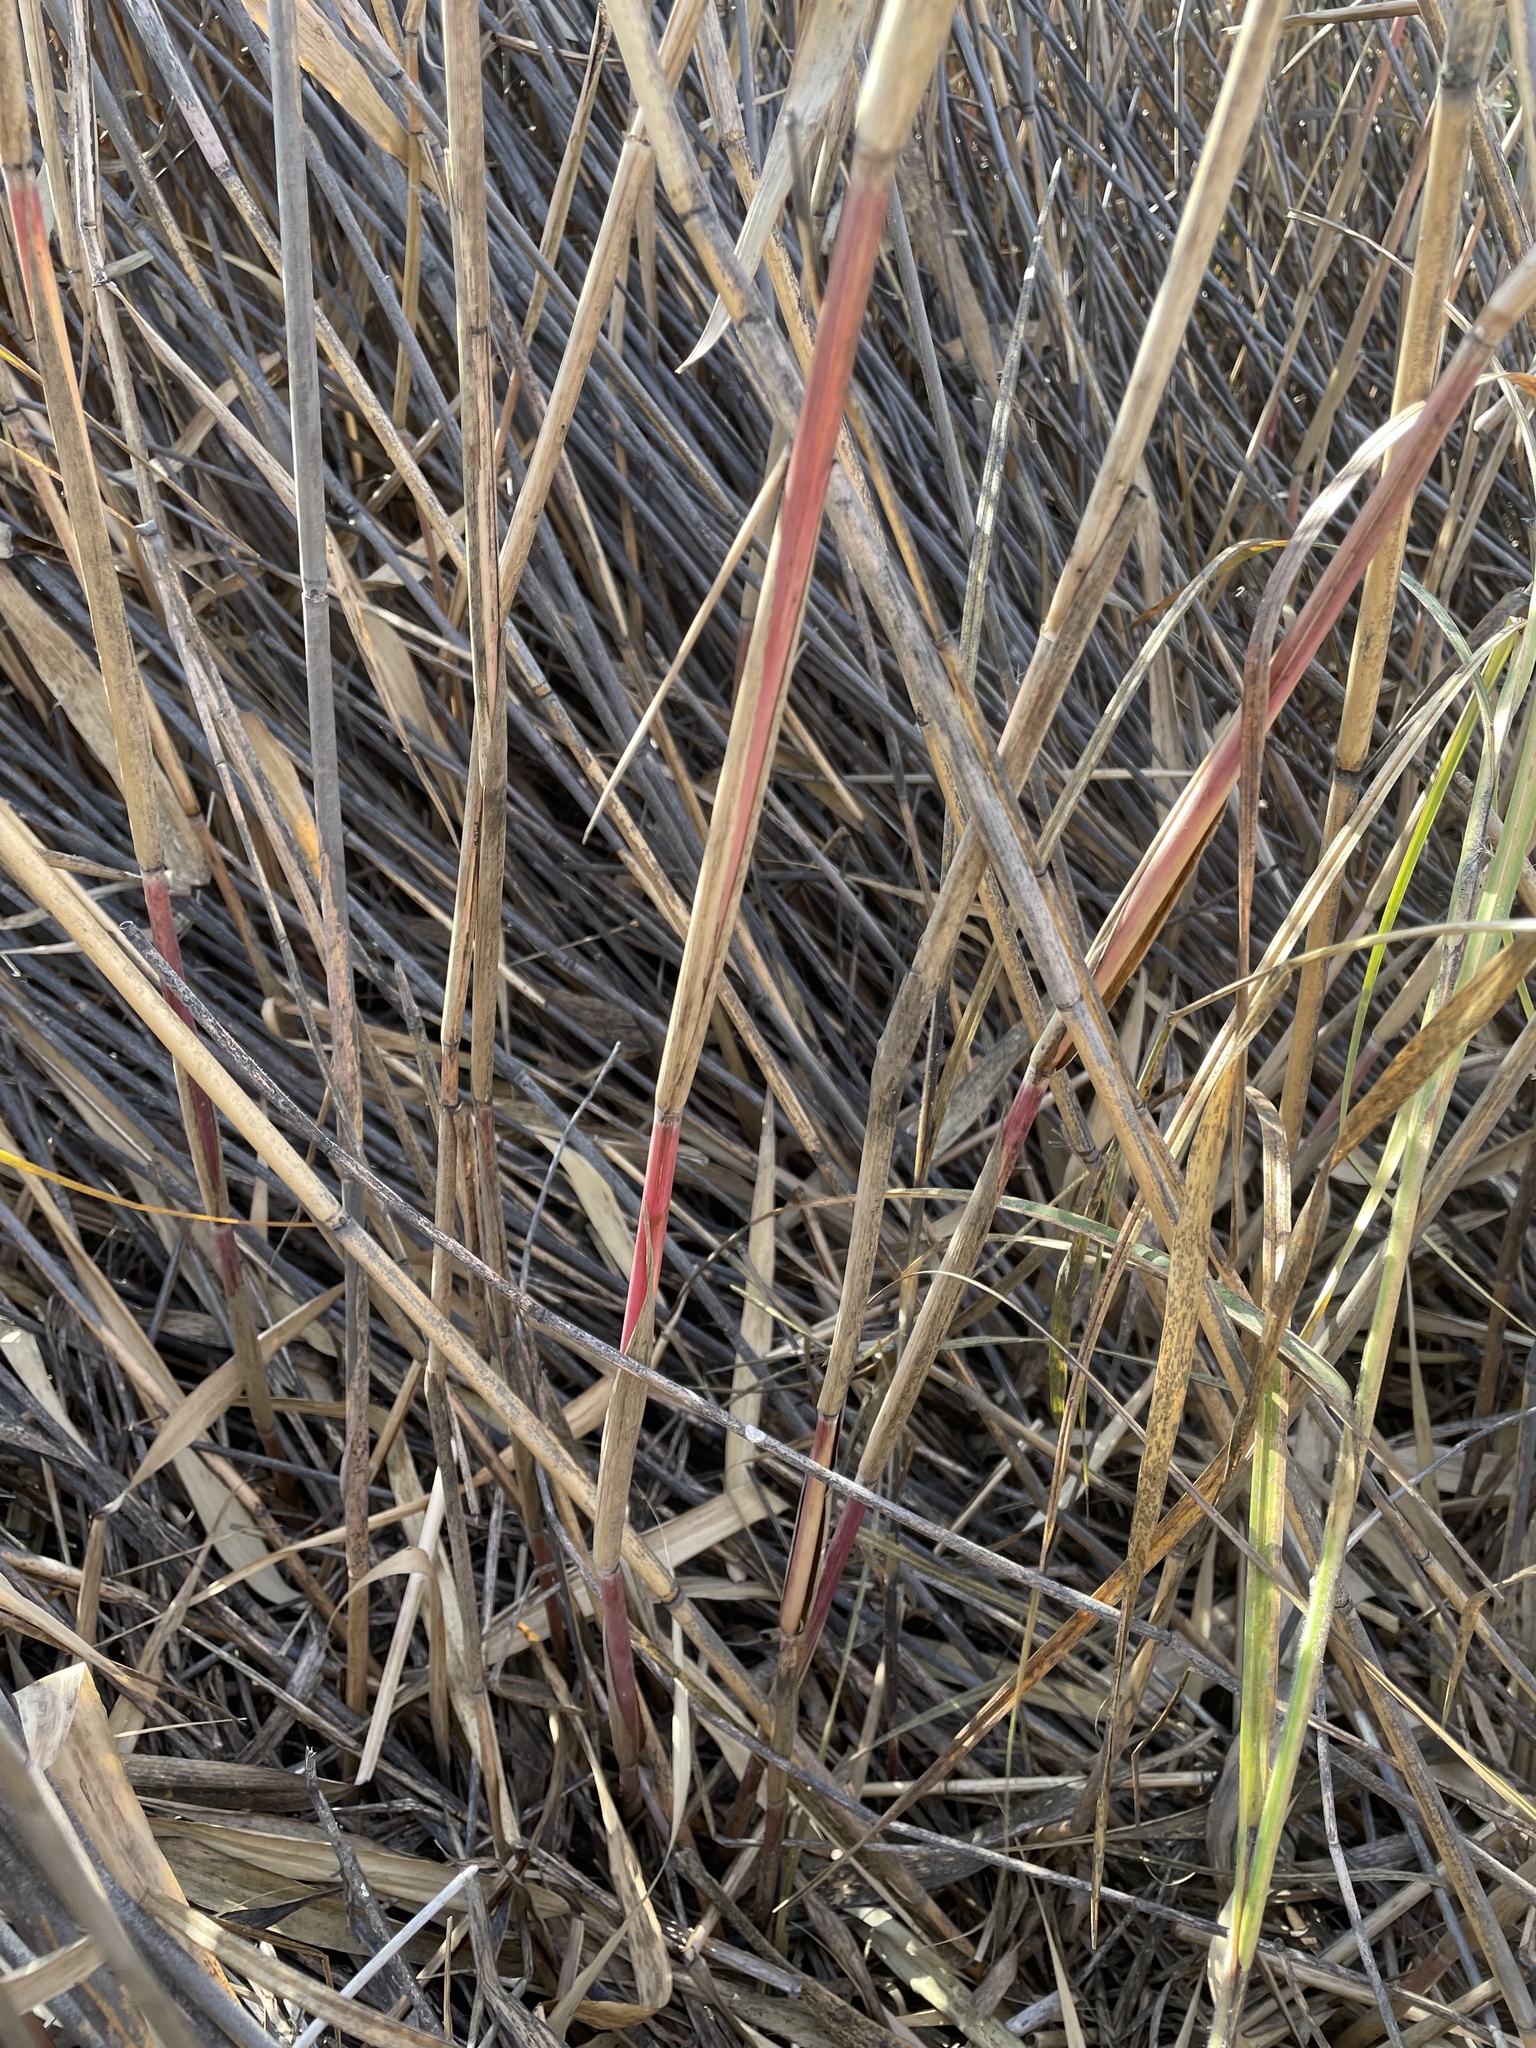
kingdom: Plantae
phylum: Tracheophyta
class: Liliopsida
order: Poales
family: Poaceae
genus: Phragmites
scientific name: Phragmites australis
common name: Common reed
